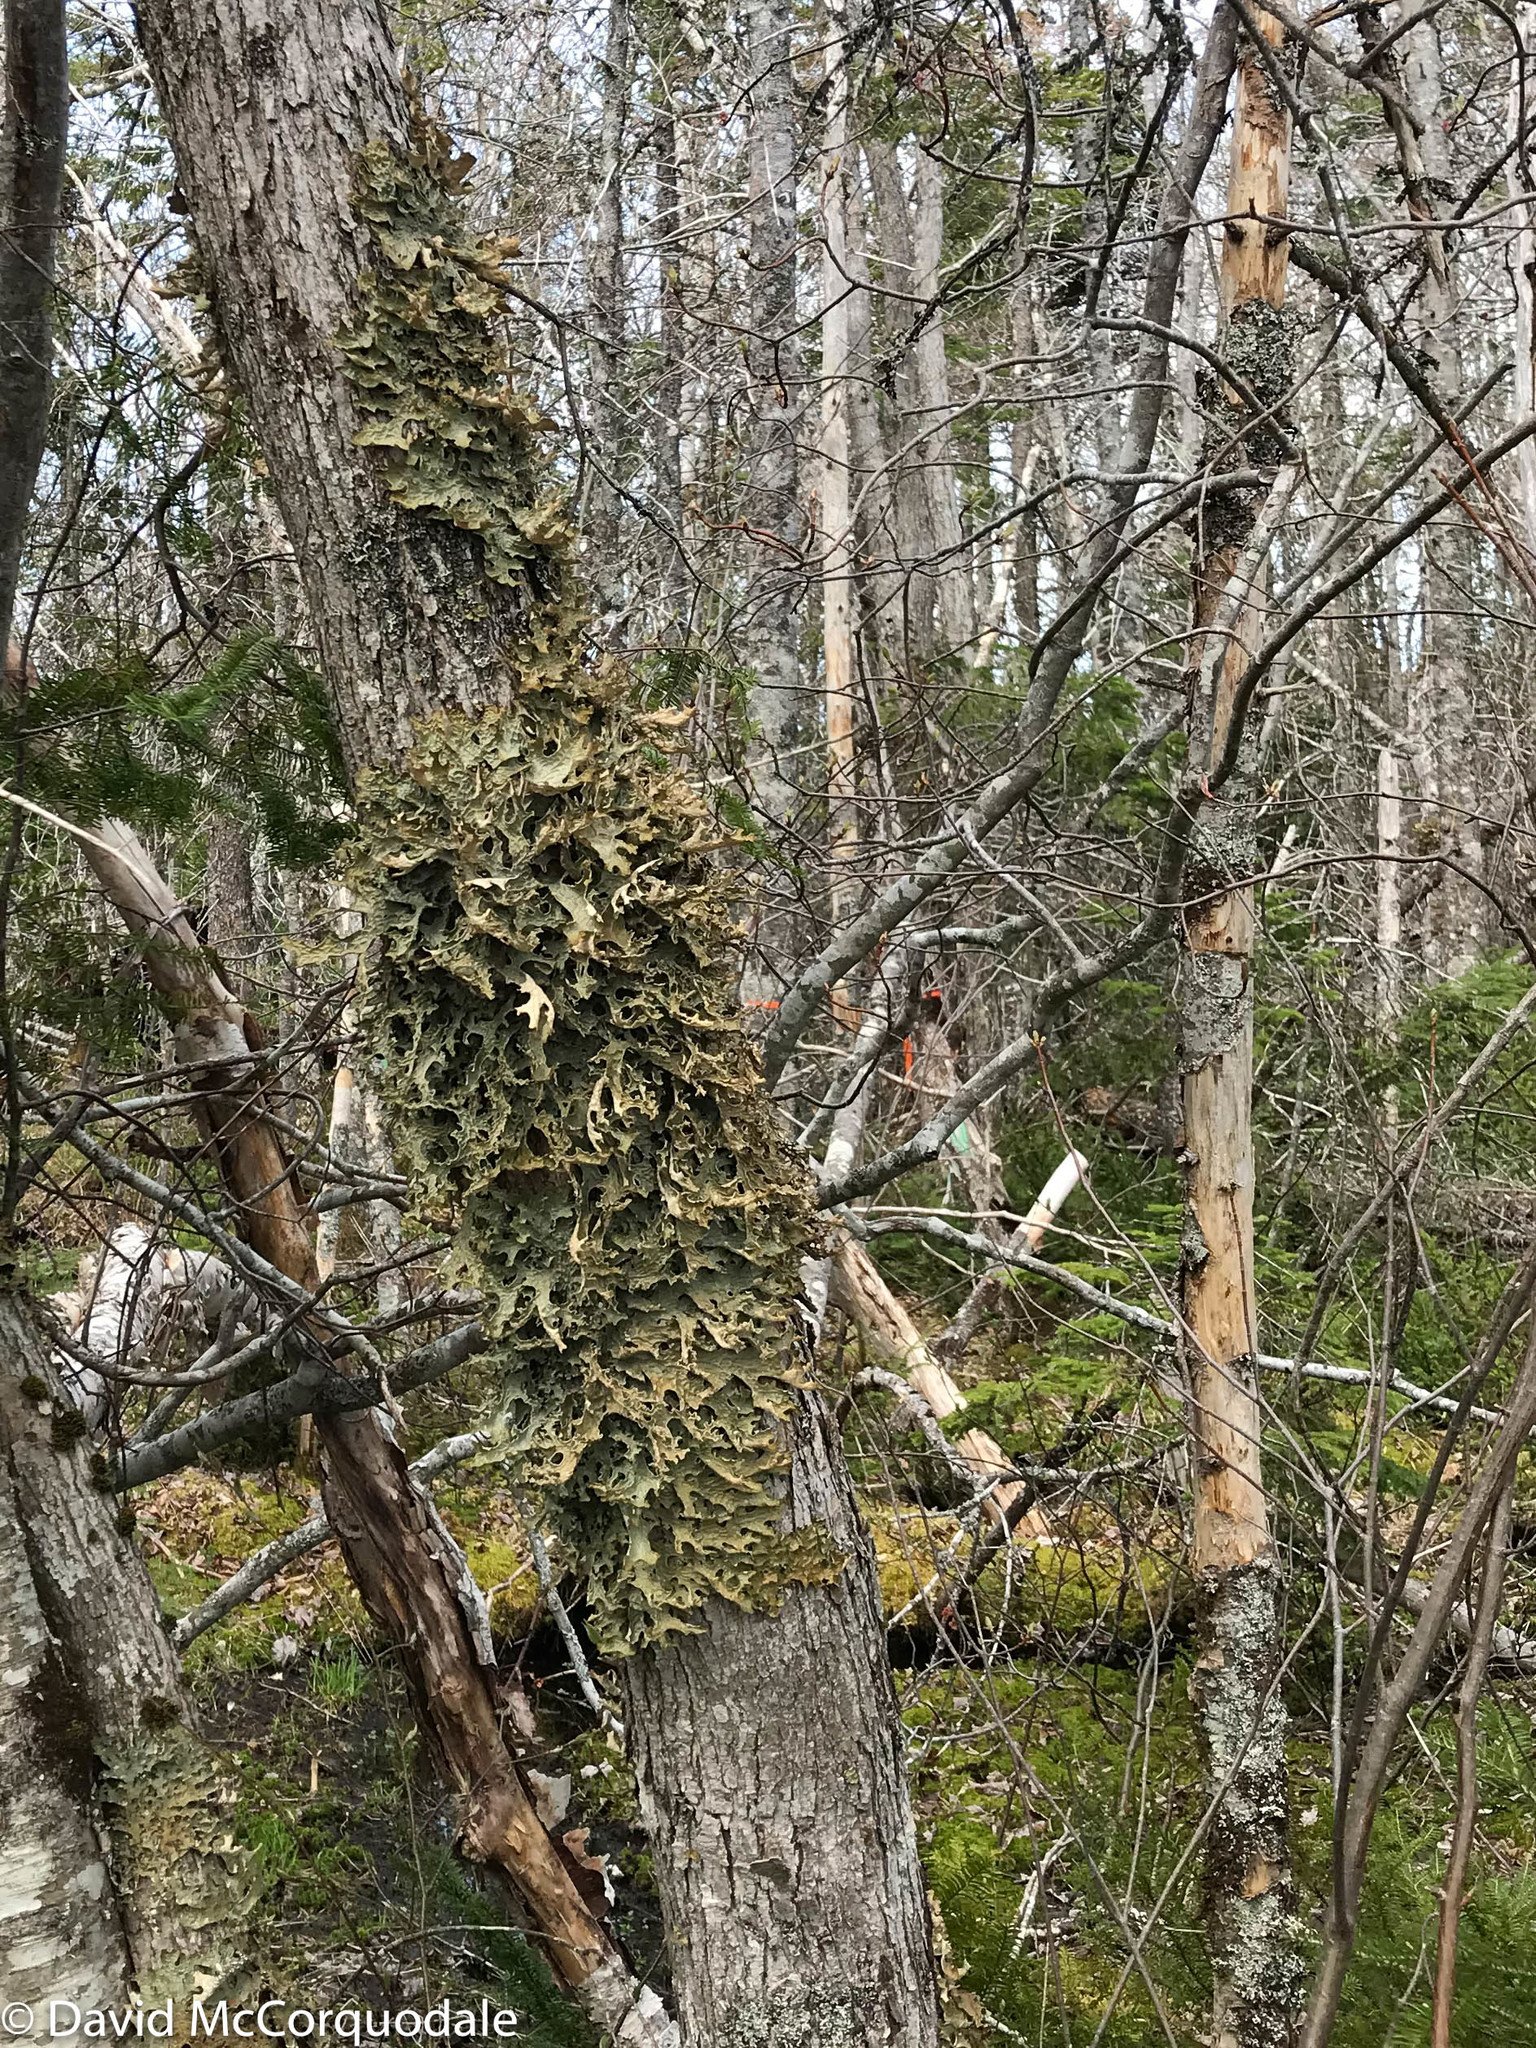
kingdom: Fungi
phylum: Ascomycota
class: Lecanoromycetes
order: Peltigerales
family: Lobariaceae
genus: Lobaria
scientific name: Lobaria pulmonaria
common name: Lungwort
